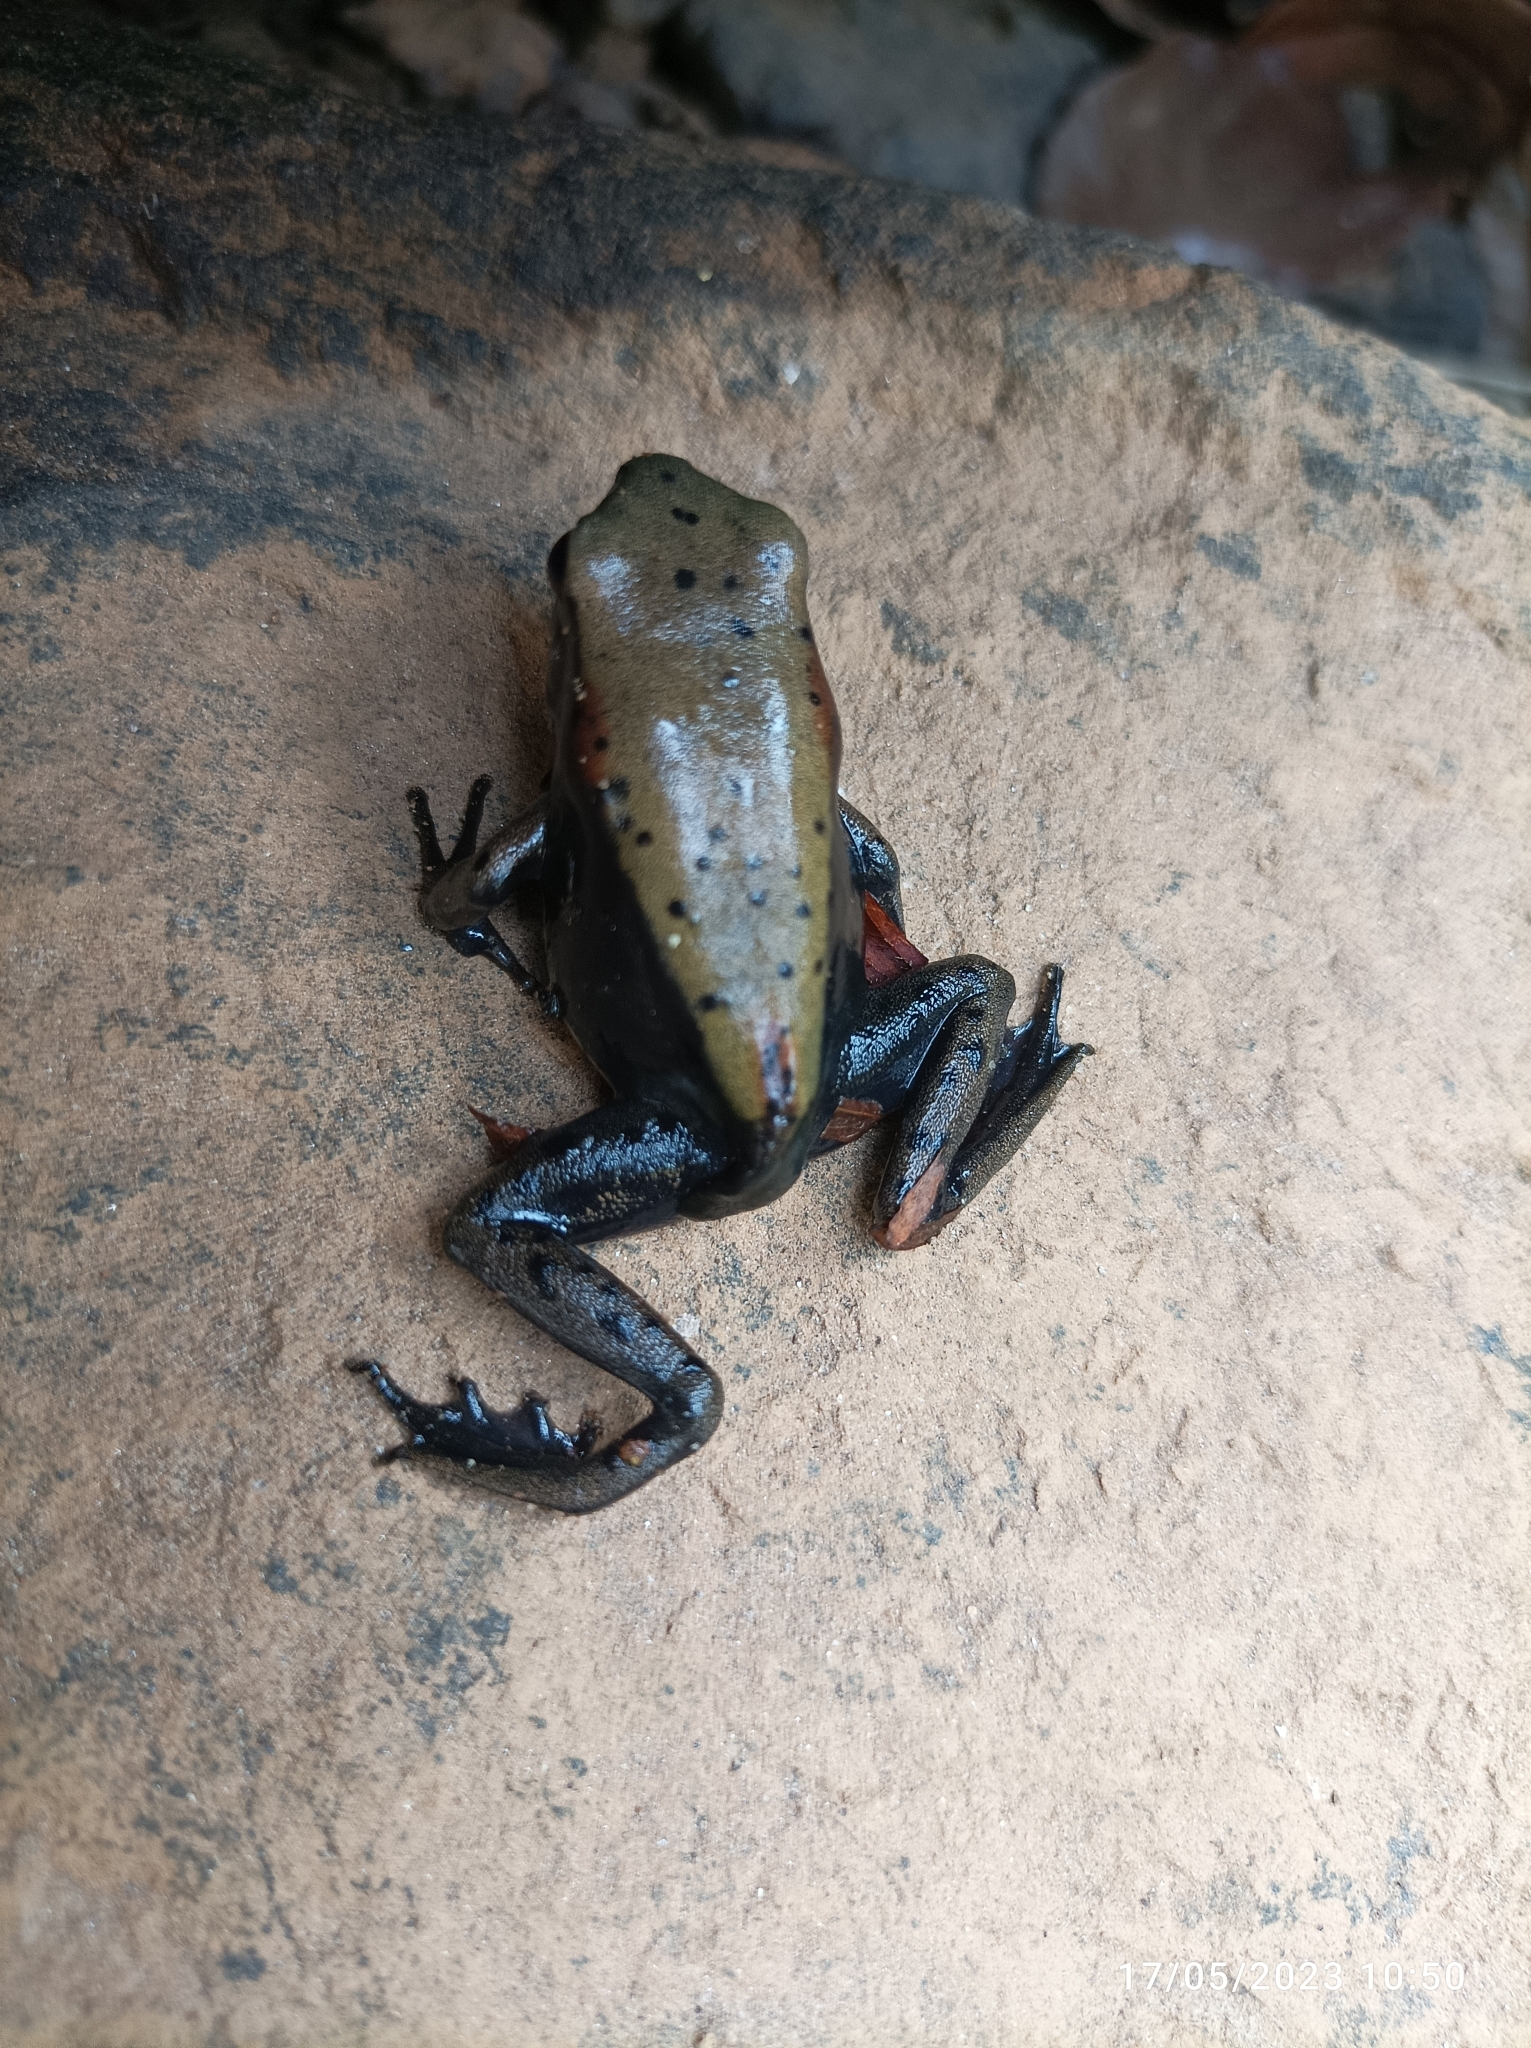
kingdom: Animalia
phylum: Chordata
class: Amphibia
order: Anura
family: Ranidae
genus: Clinotarsus
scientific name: Clinotarsus curtipes
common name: Bicoloured frog
